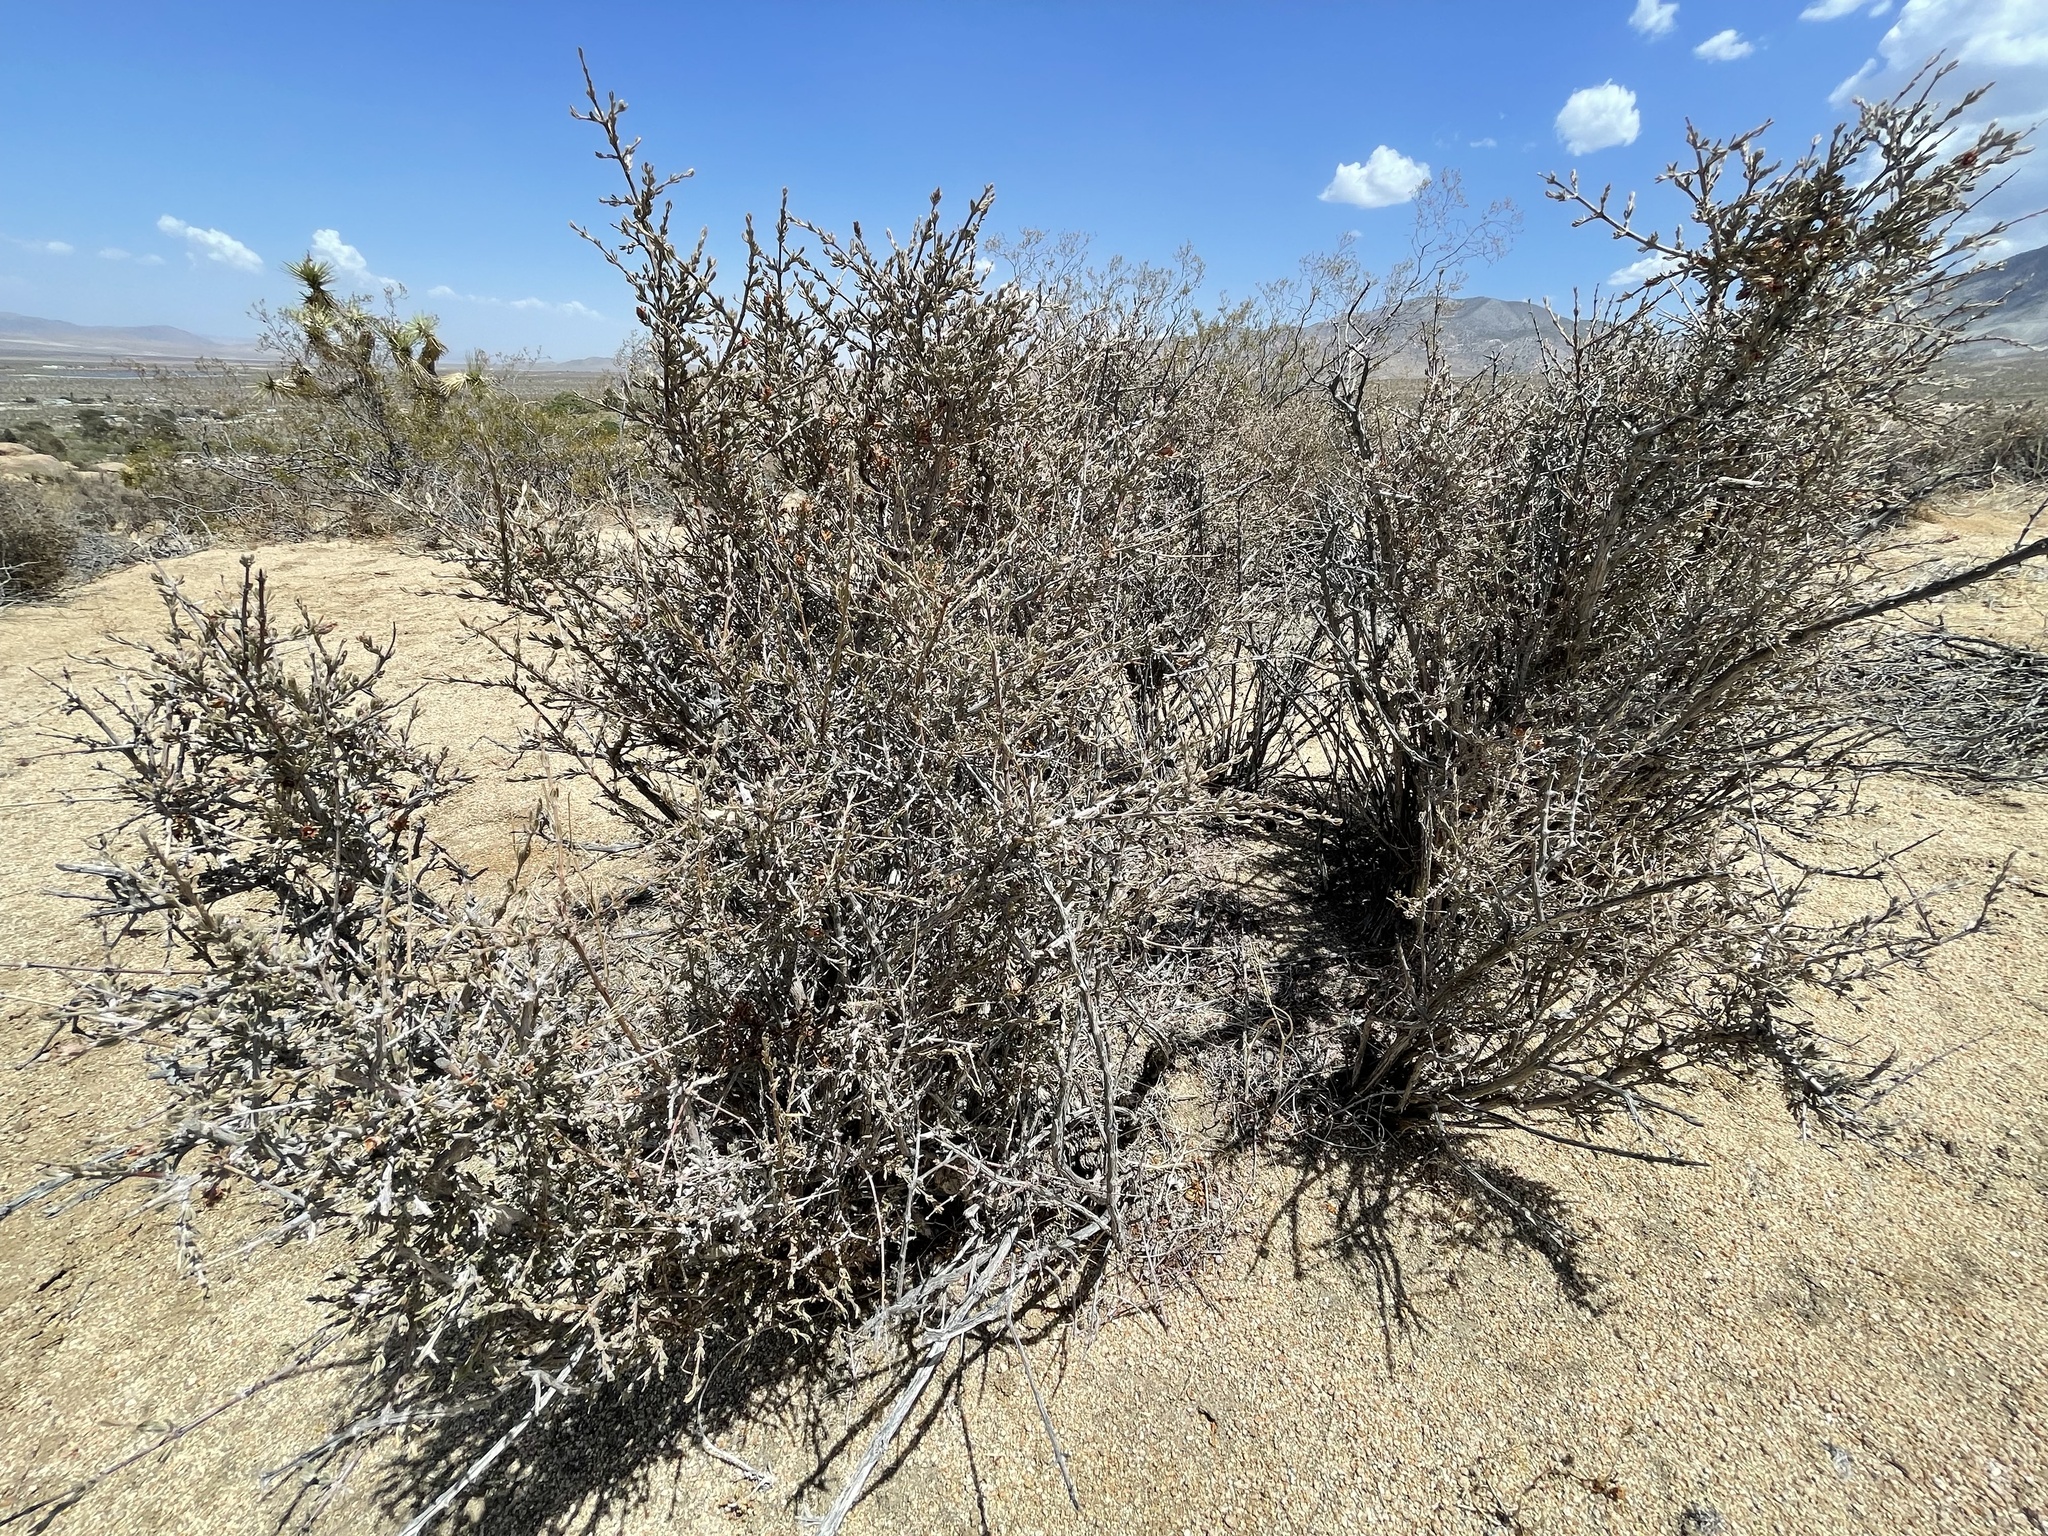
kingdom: Plantae
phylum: Tracheophyta
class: Magnoliopsida
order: Rosales
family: Rosaceae
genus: Coleogyne
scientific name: Coleogyne ramosissima
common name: Blackbrush
